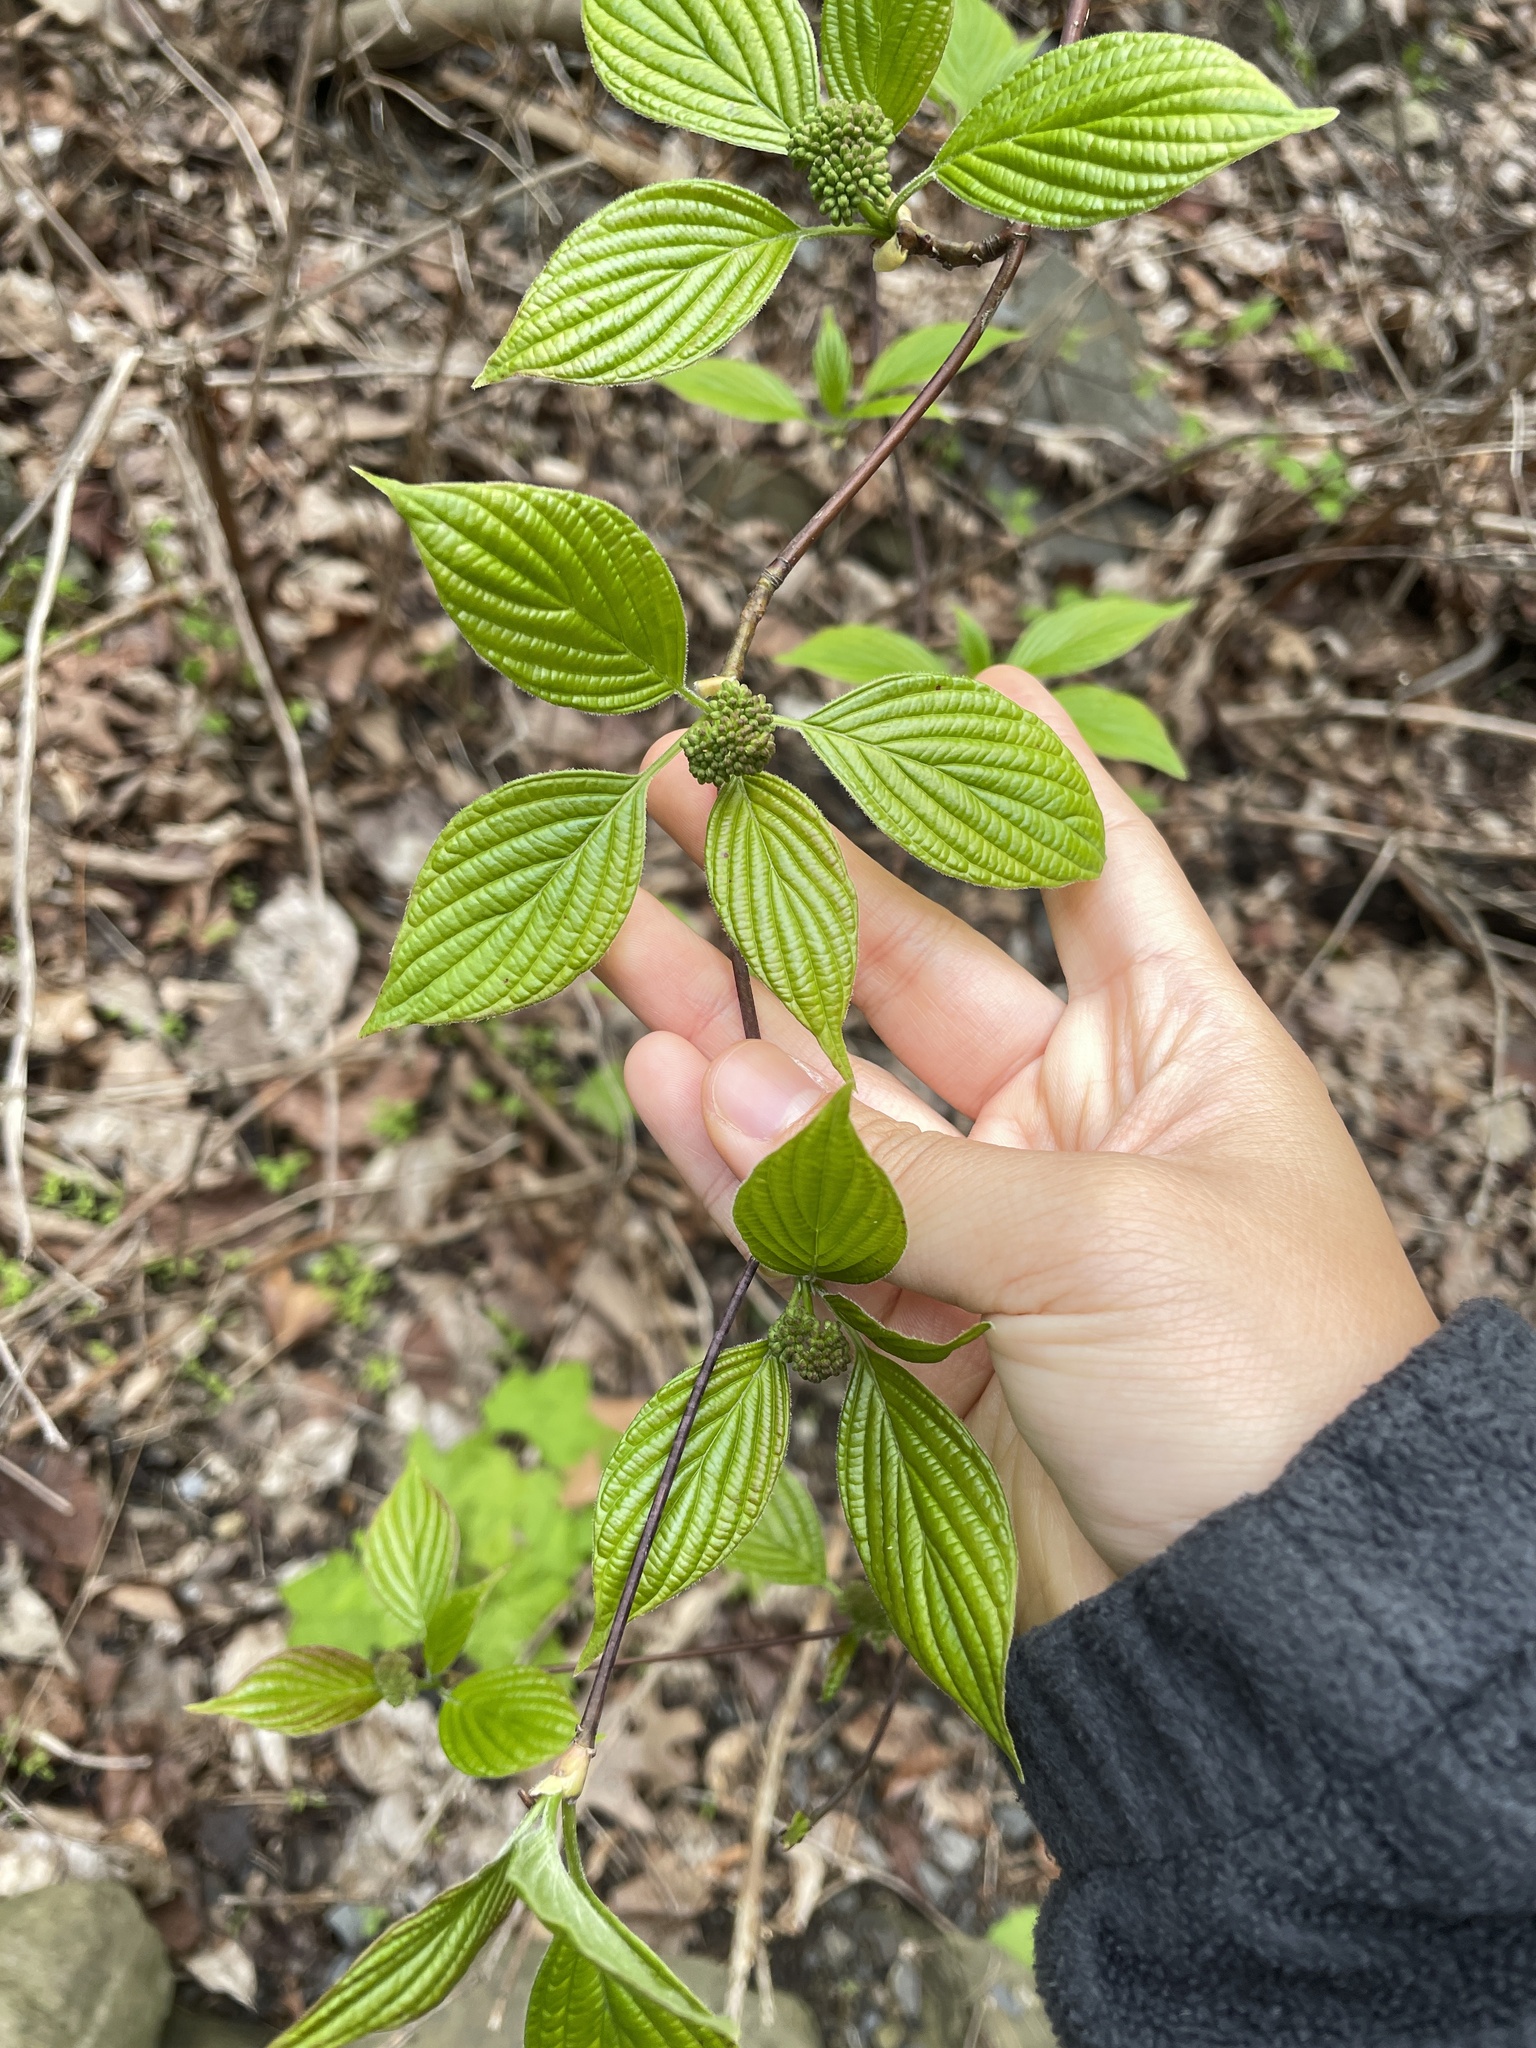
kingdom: Plantae
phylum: Tracheophyta
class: Magnoliopsida
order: Cornales
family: Cornaceae
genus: Cornus
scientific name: Cornus alternifolia
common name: Pagoda dogwood
